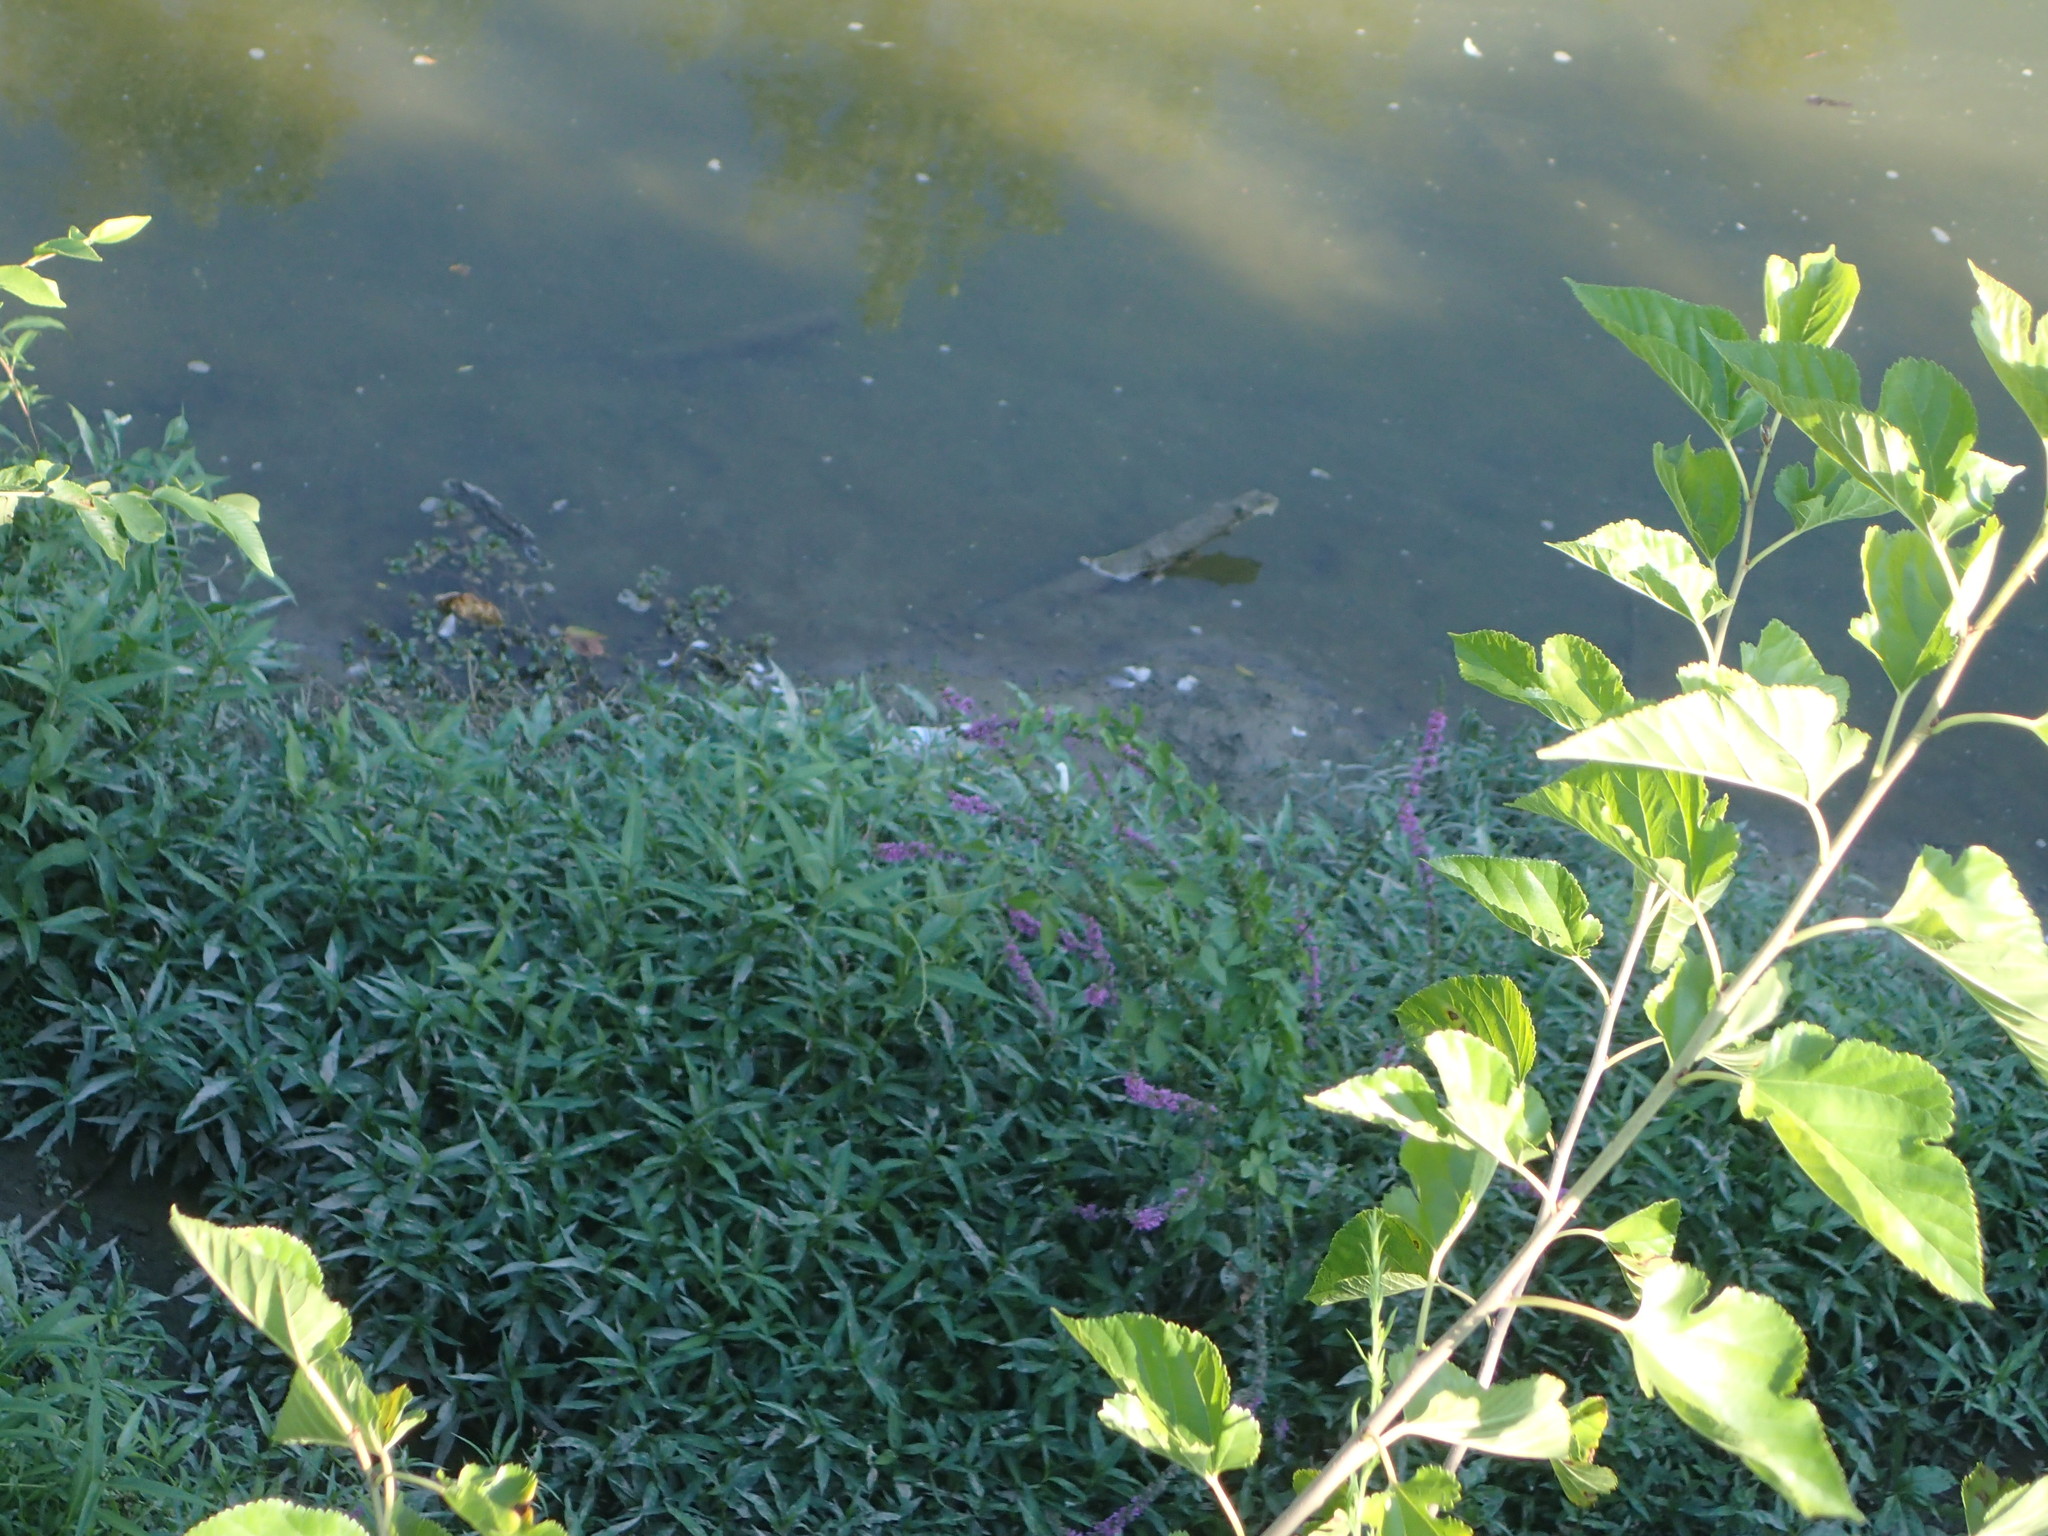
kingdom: Plantae
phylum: Tracheophyta
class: Magnoliopsida
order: Myrtales
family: Lythraceae
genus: Lythrum
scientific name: Lythrum salicaria
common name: Purple loosestrife
